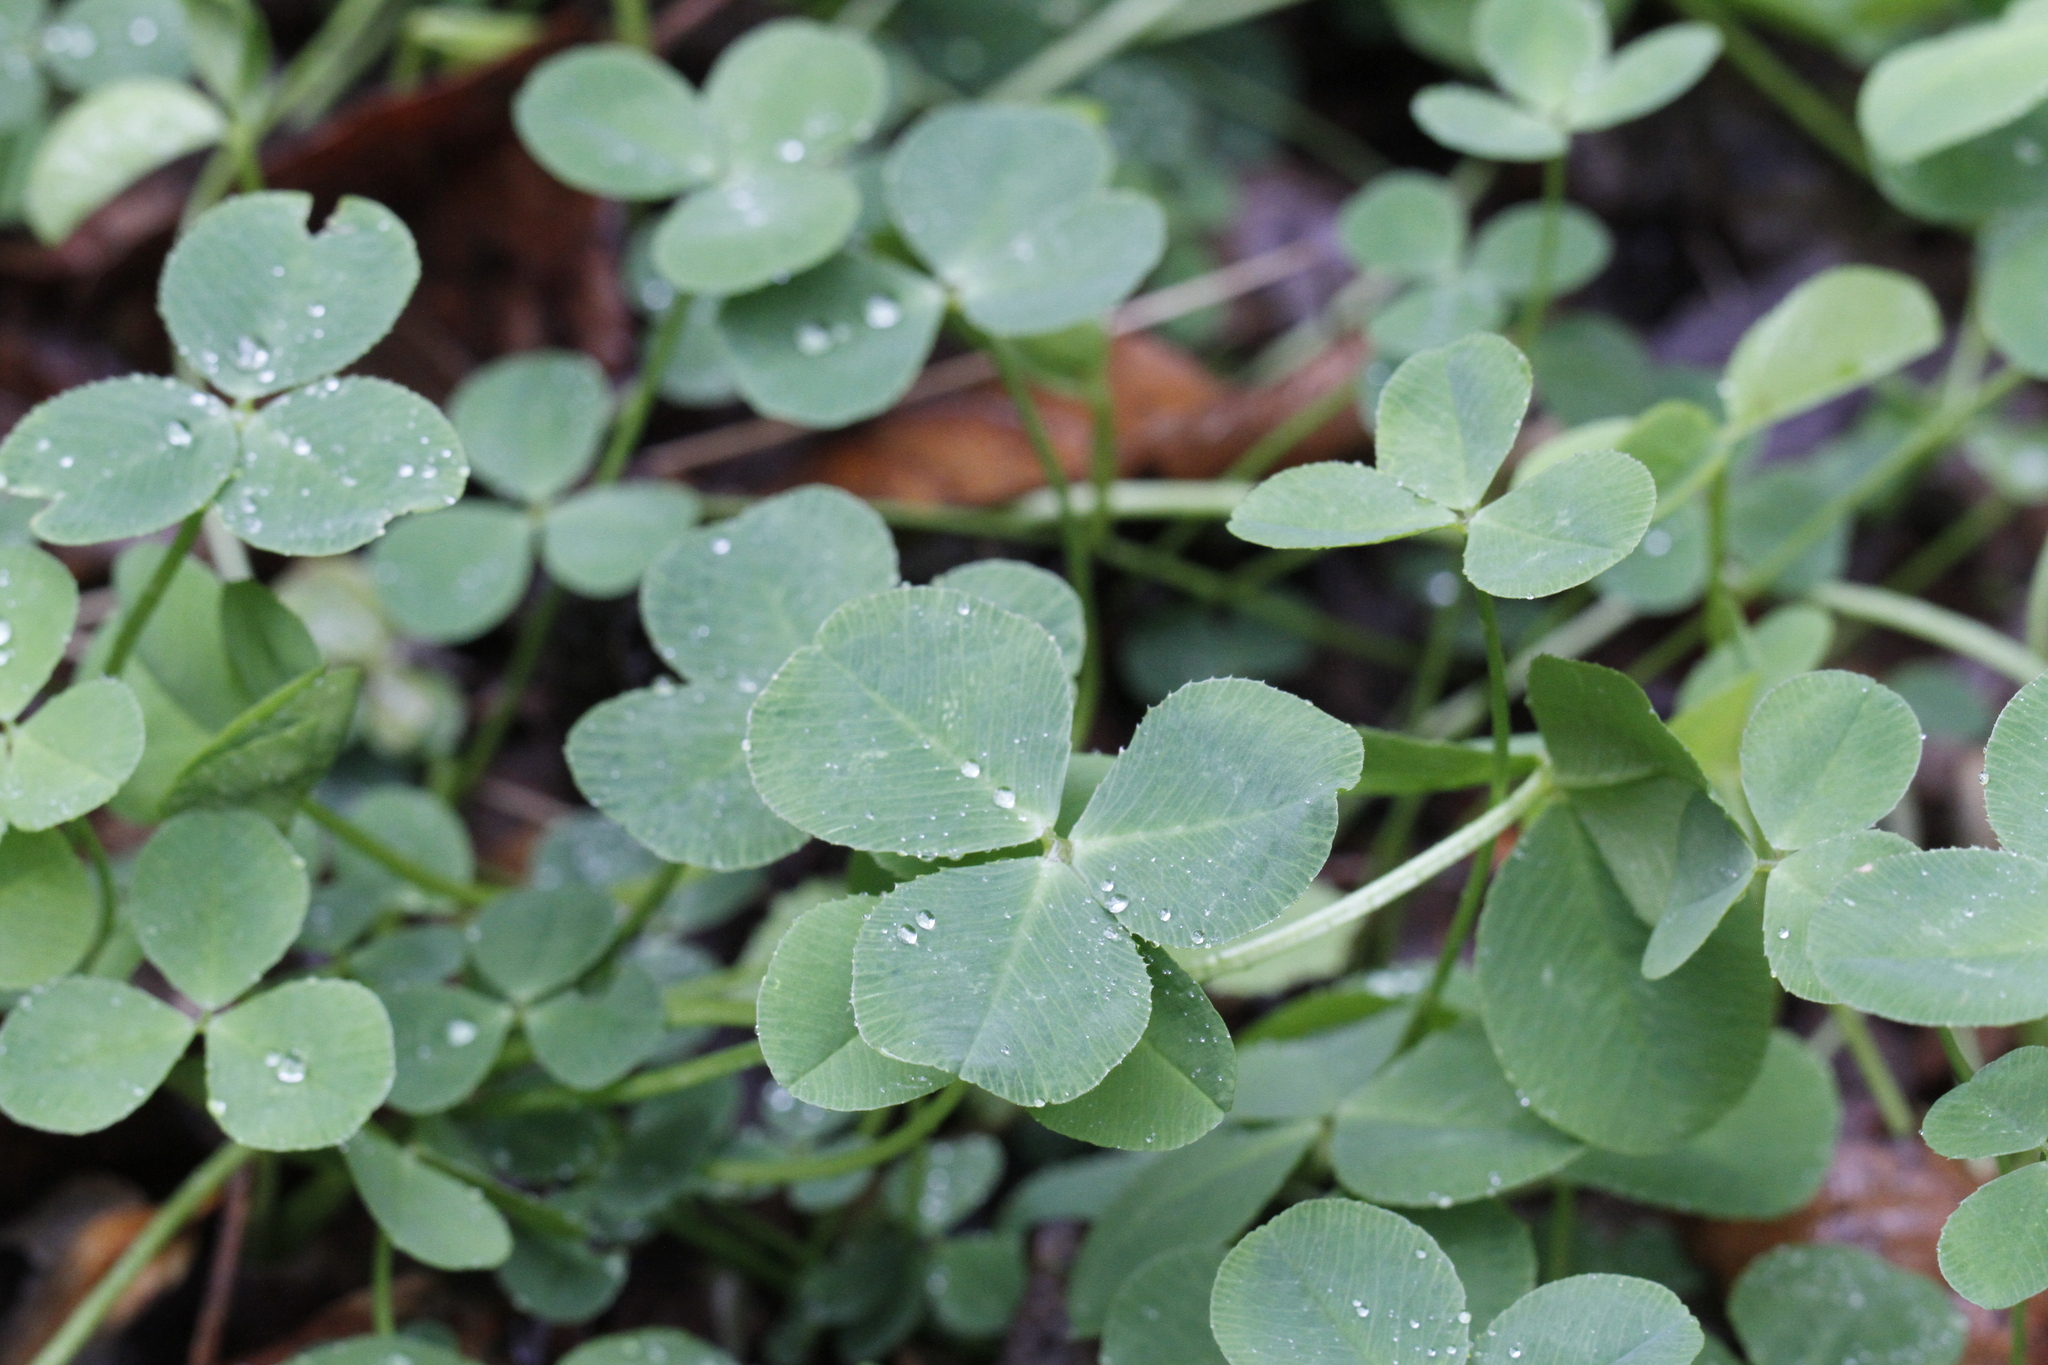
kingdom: Plantae
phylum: Tracheophyta
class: Magnoliopsida
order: Fabales
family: Fabaceae
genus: Trifolium
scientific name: Trifolium repens
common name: White clover
